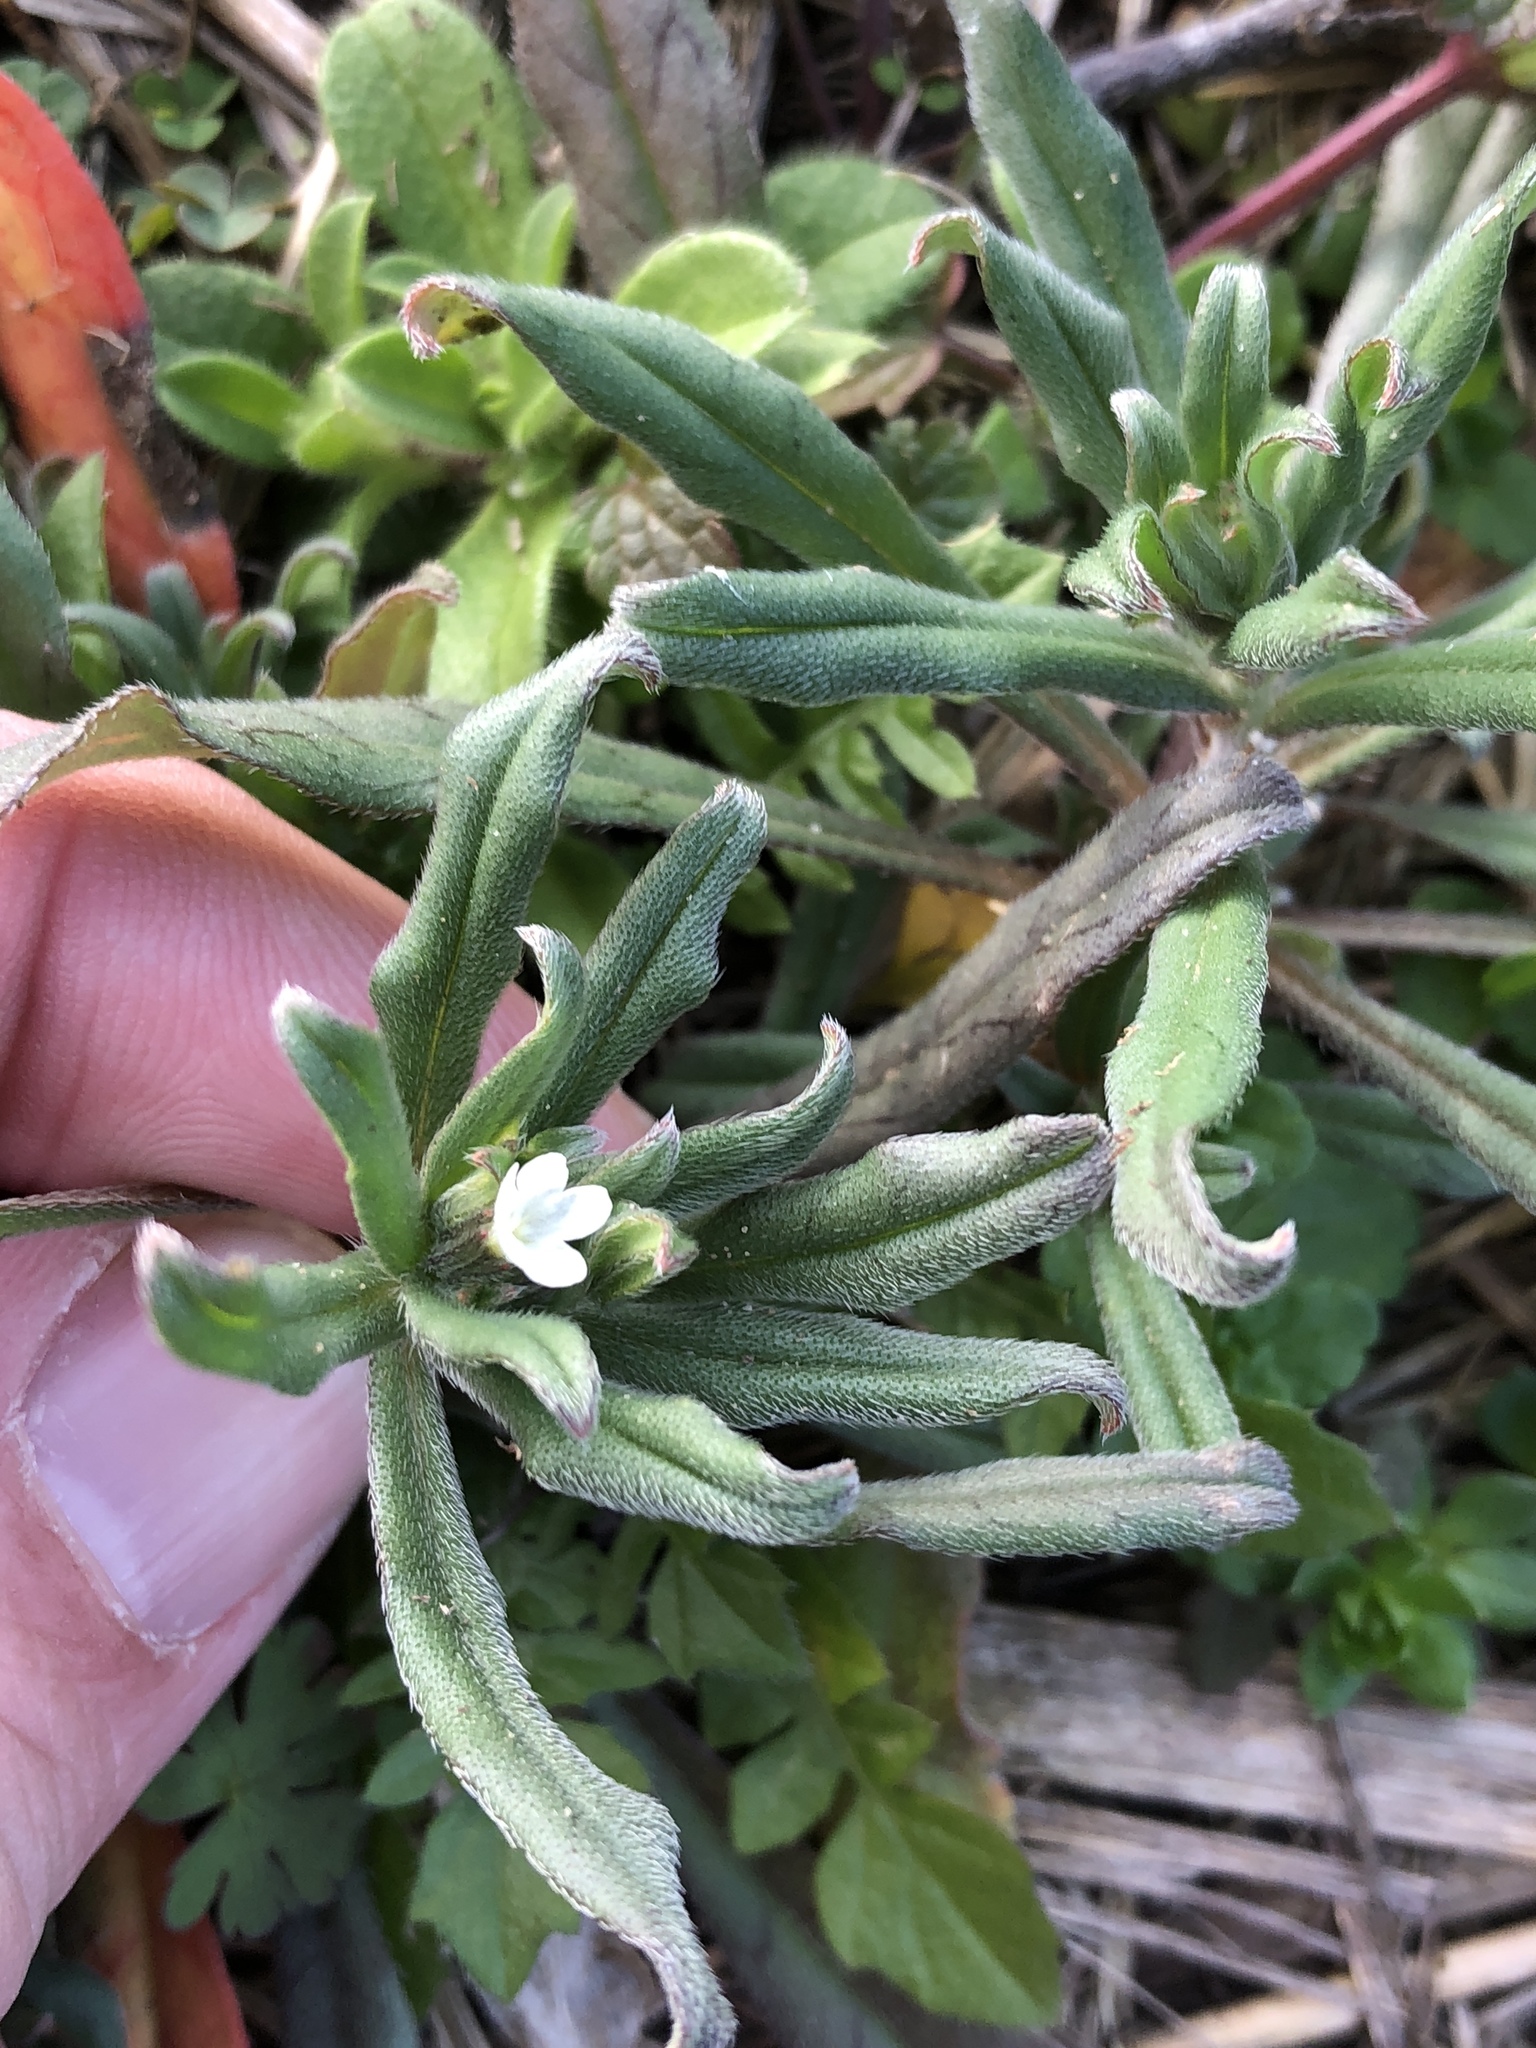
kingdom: Plantae
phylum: Tracheophyta
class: Magnoliopsida
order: Boraginales
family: Boraginaceae
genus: Buglossoides
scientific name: Buglossoides arvensis
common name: Corn gromwell
